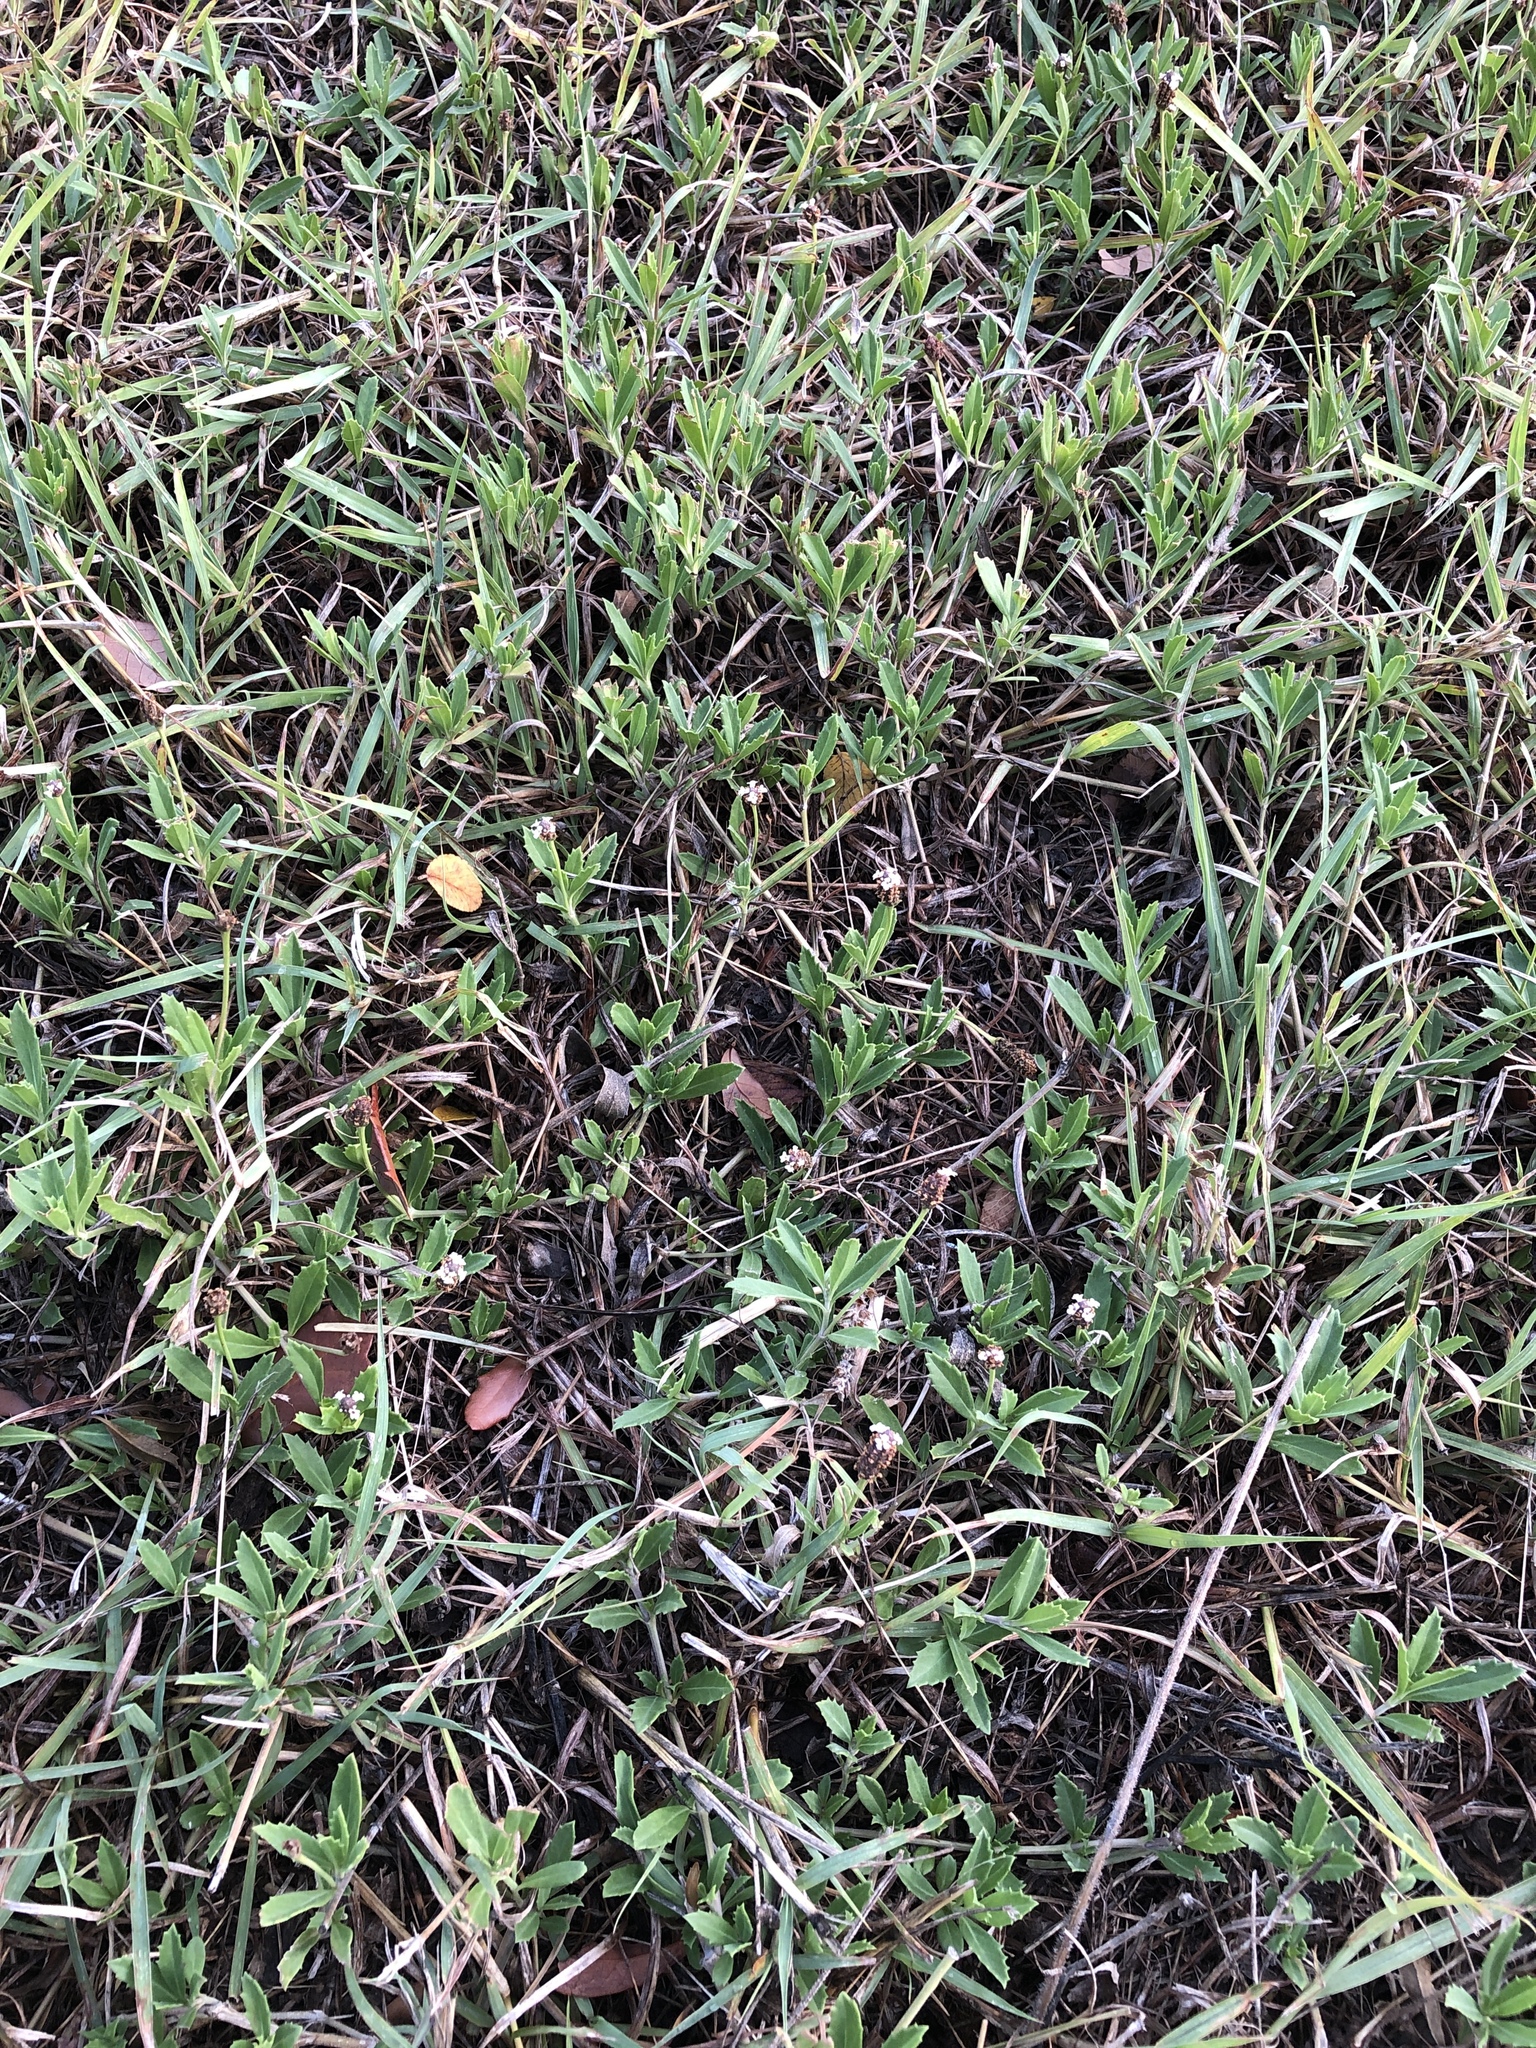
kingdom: Plantae
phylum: Tracheophyta
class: Magnoliopsida
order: Lamiales
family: Verbenaceae
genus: Phyla
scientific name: Phyla nodiflora
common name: Frogfruit
